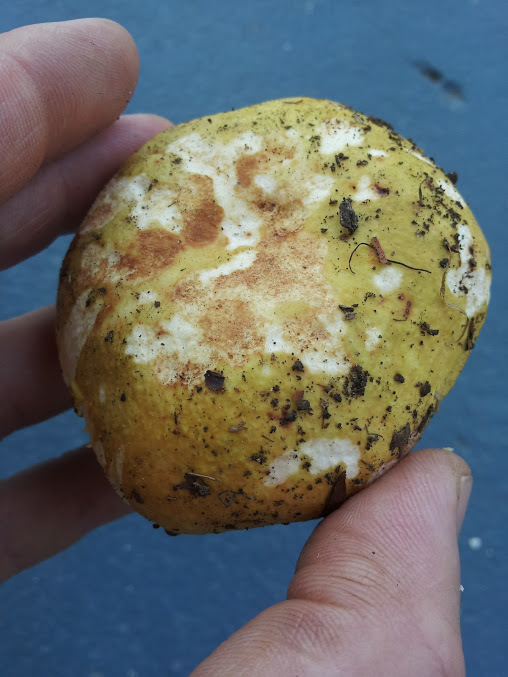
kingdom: Fungi
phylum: Basidiomycota
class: Agaricomycetes
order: Russulales
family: Russulaceae
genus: Russula
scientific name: Russula hibbardae
